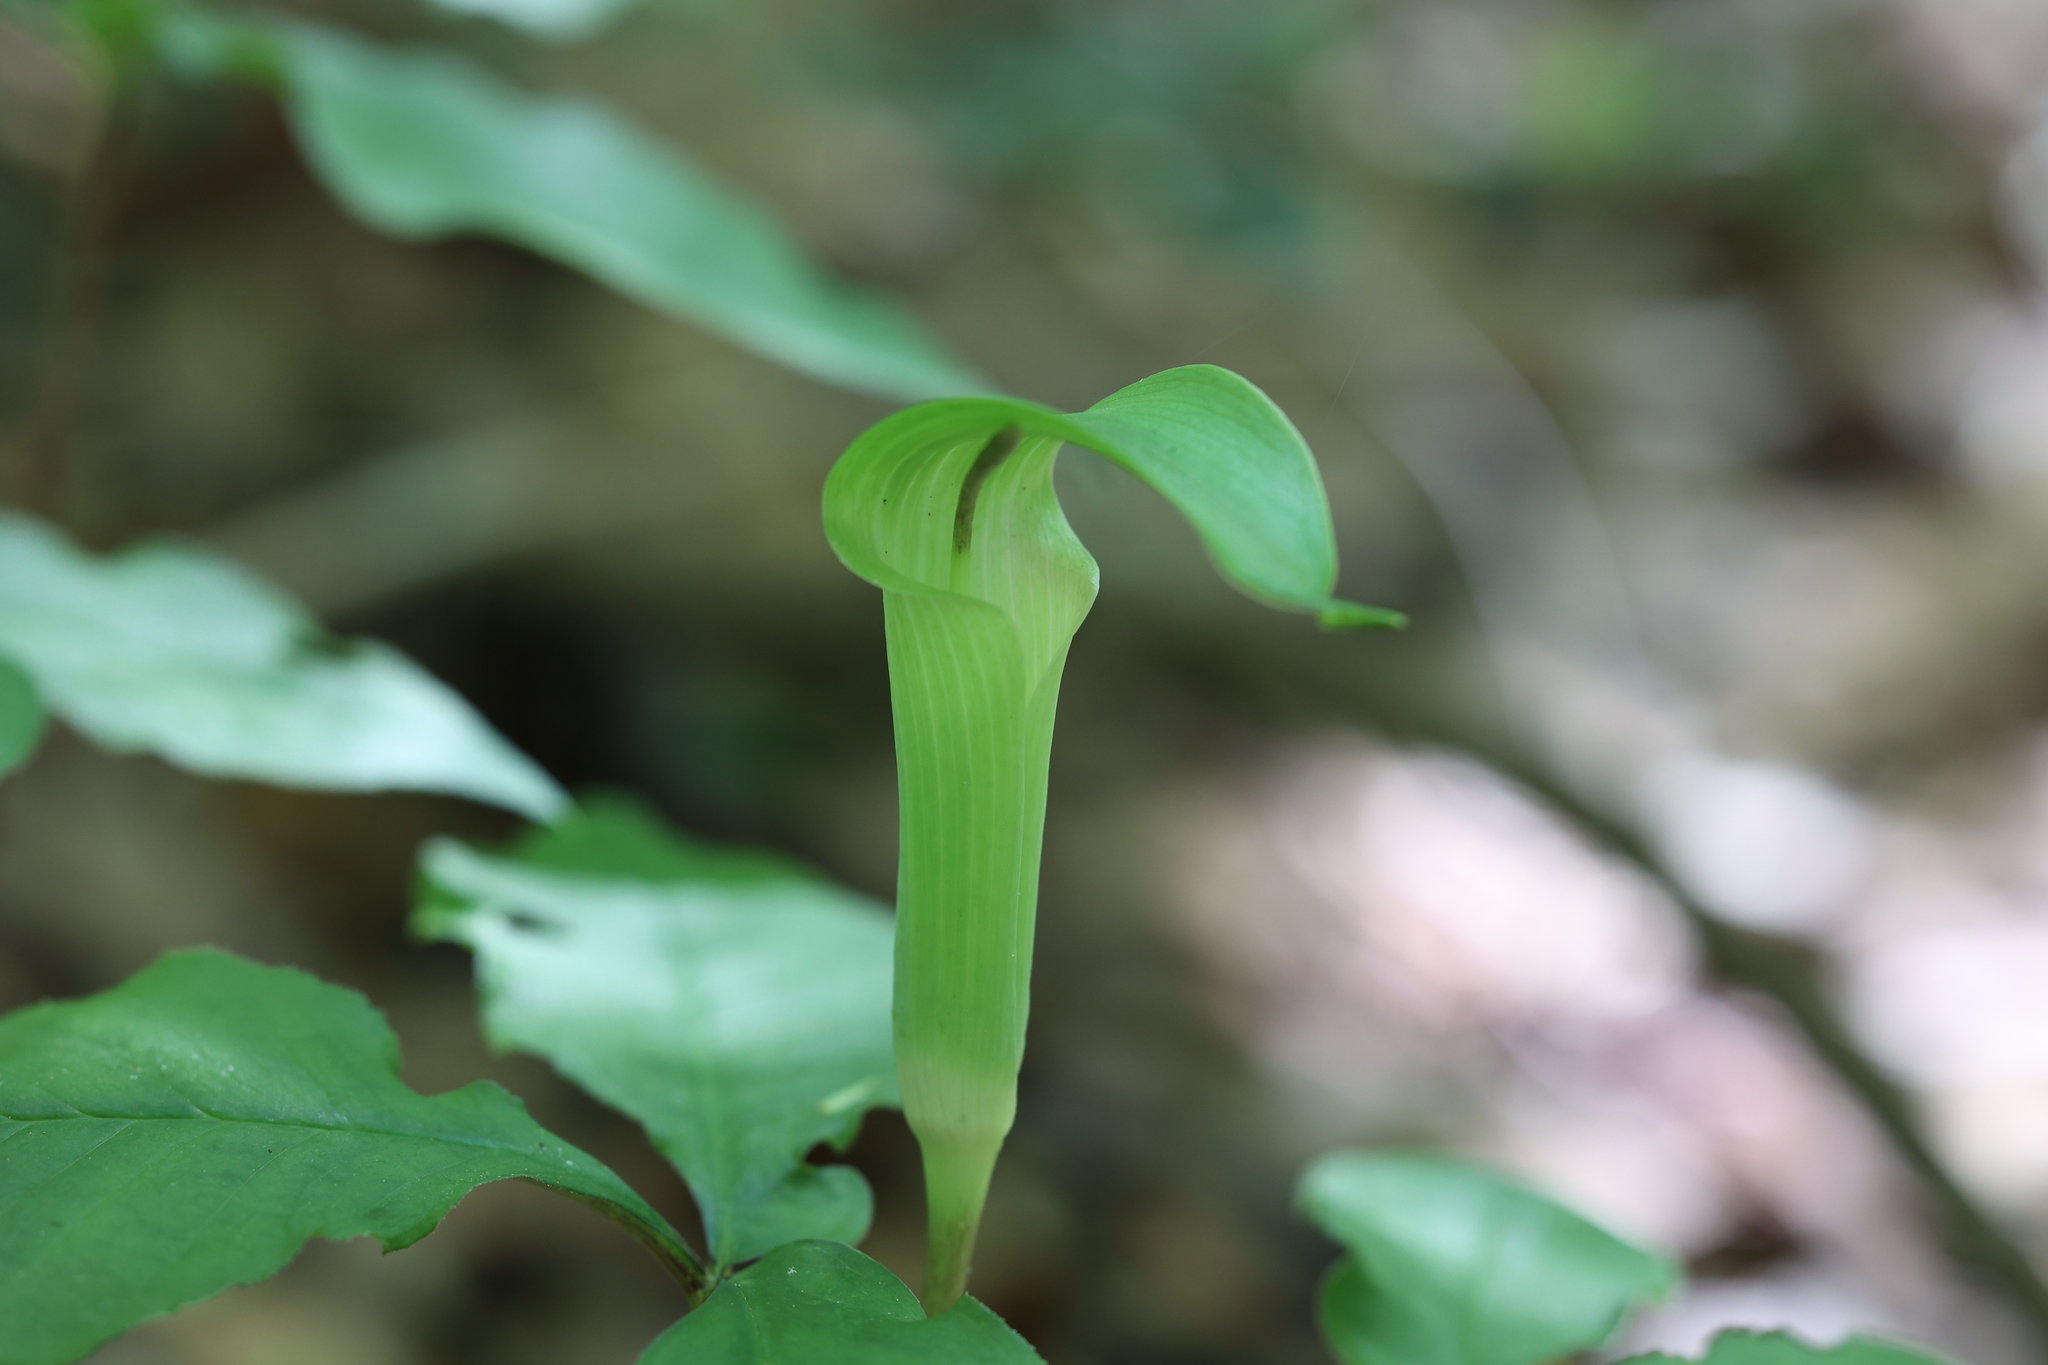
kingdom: Plantae
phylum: Tracheophyta
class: Liliopsida
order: Alismatales
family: Araceae
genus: Arisaema
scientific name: Arisaema quinatum
